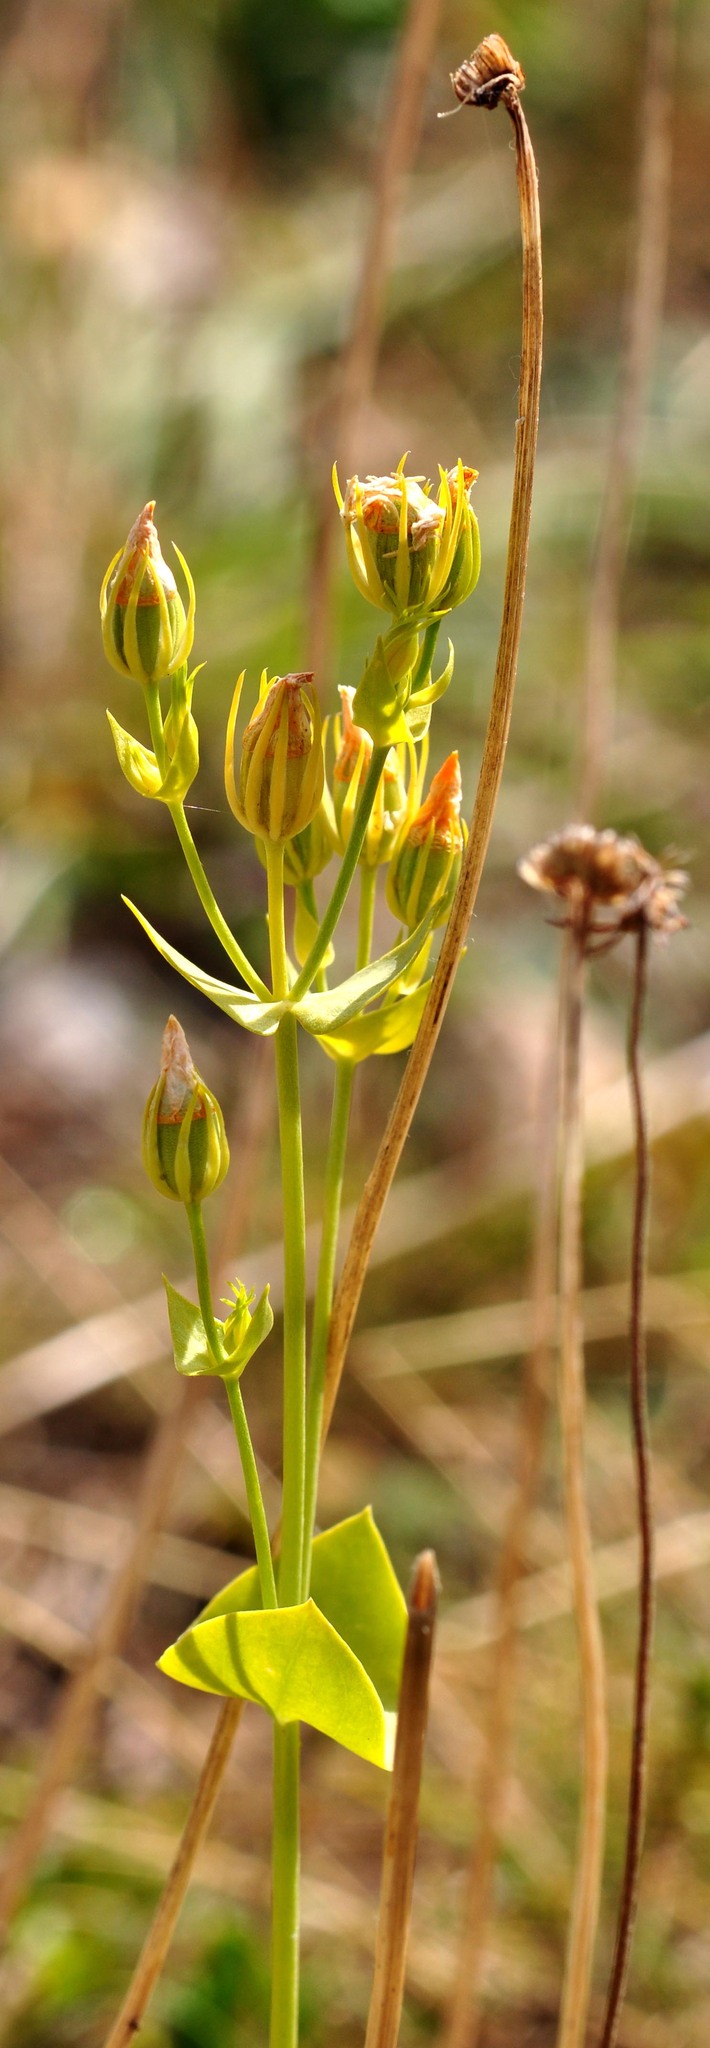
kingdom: Plantae
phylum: Tracheophyta
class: Magnoliopsida
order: Gentianales
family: Gentianaceae
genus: Blackstonia
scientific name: Blackstonia perfoliata
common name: Yellow-wort
